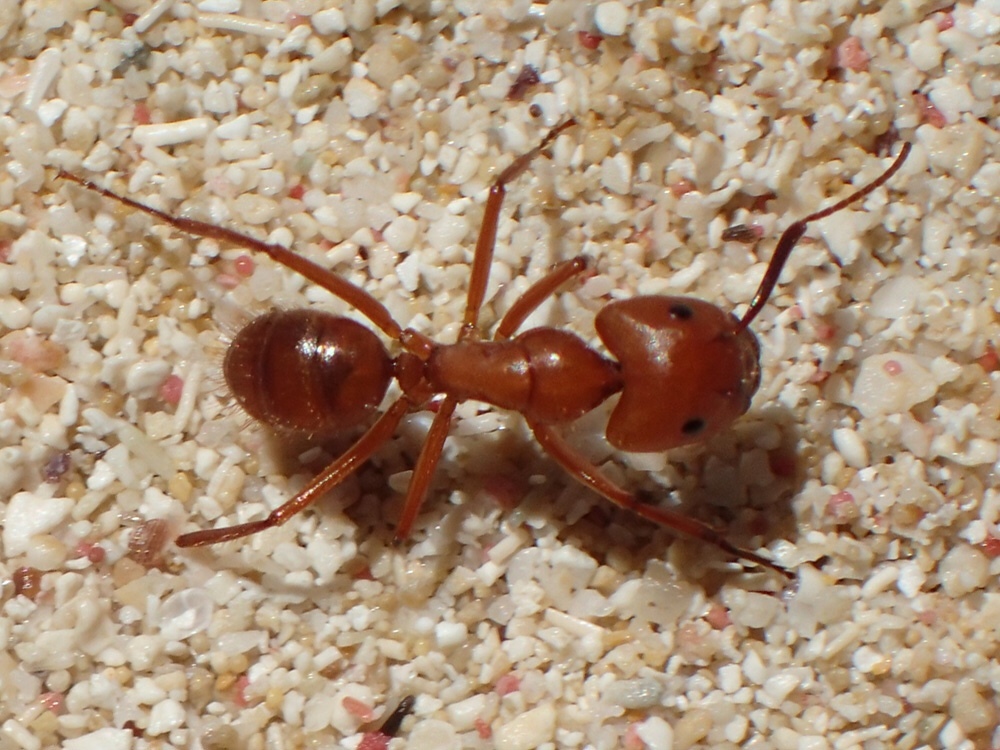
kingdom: Animalia
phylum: Arthropoda
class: Insecta
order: Hymenoptera
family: Formicidae
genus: Camponotus
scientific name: Camponotus hannani
